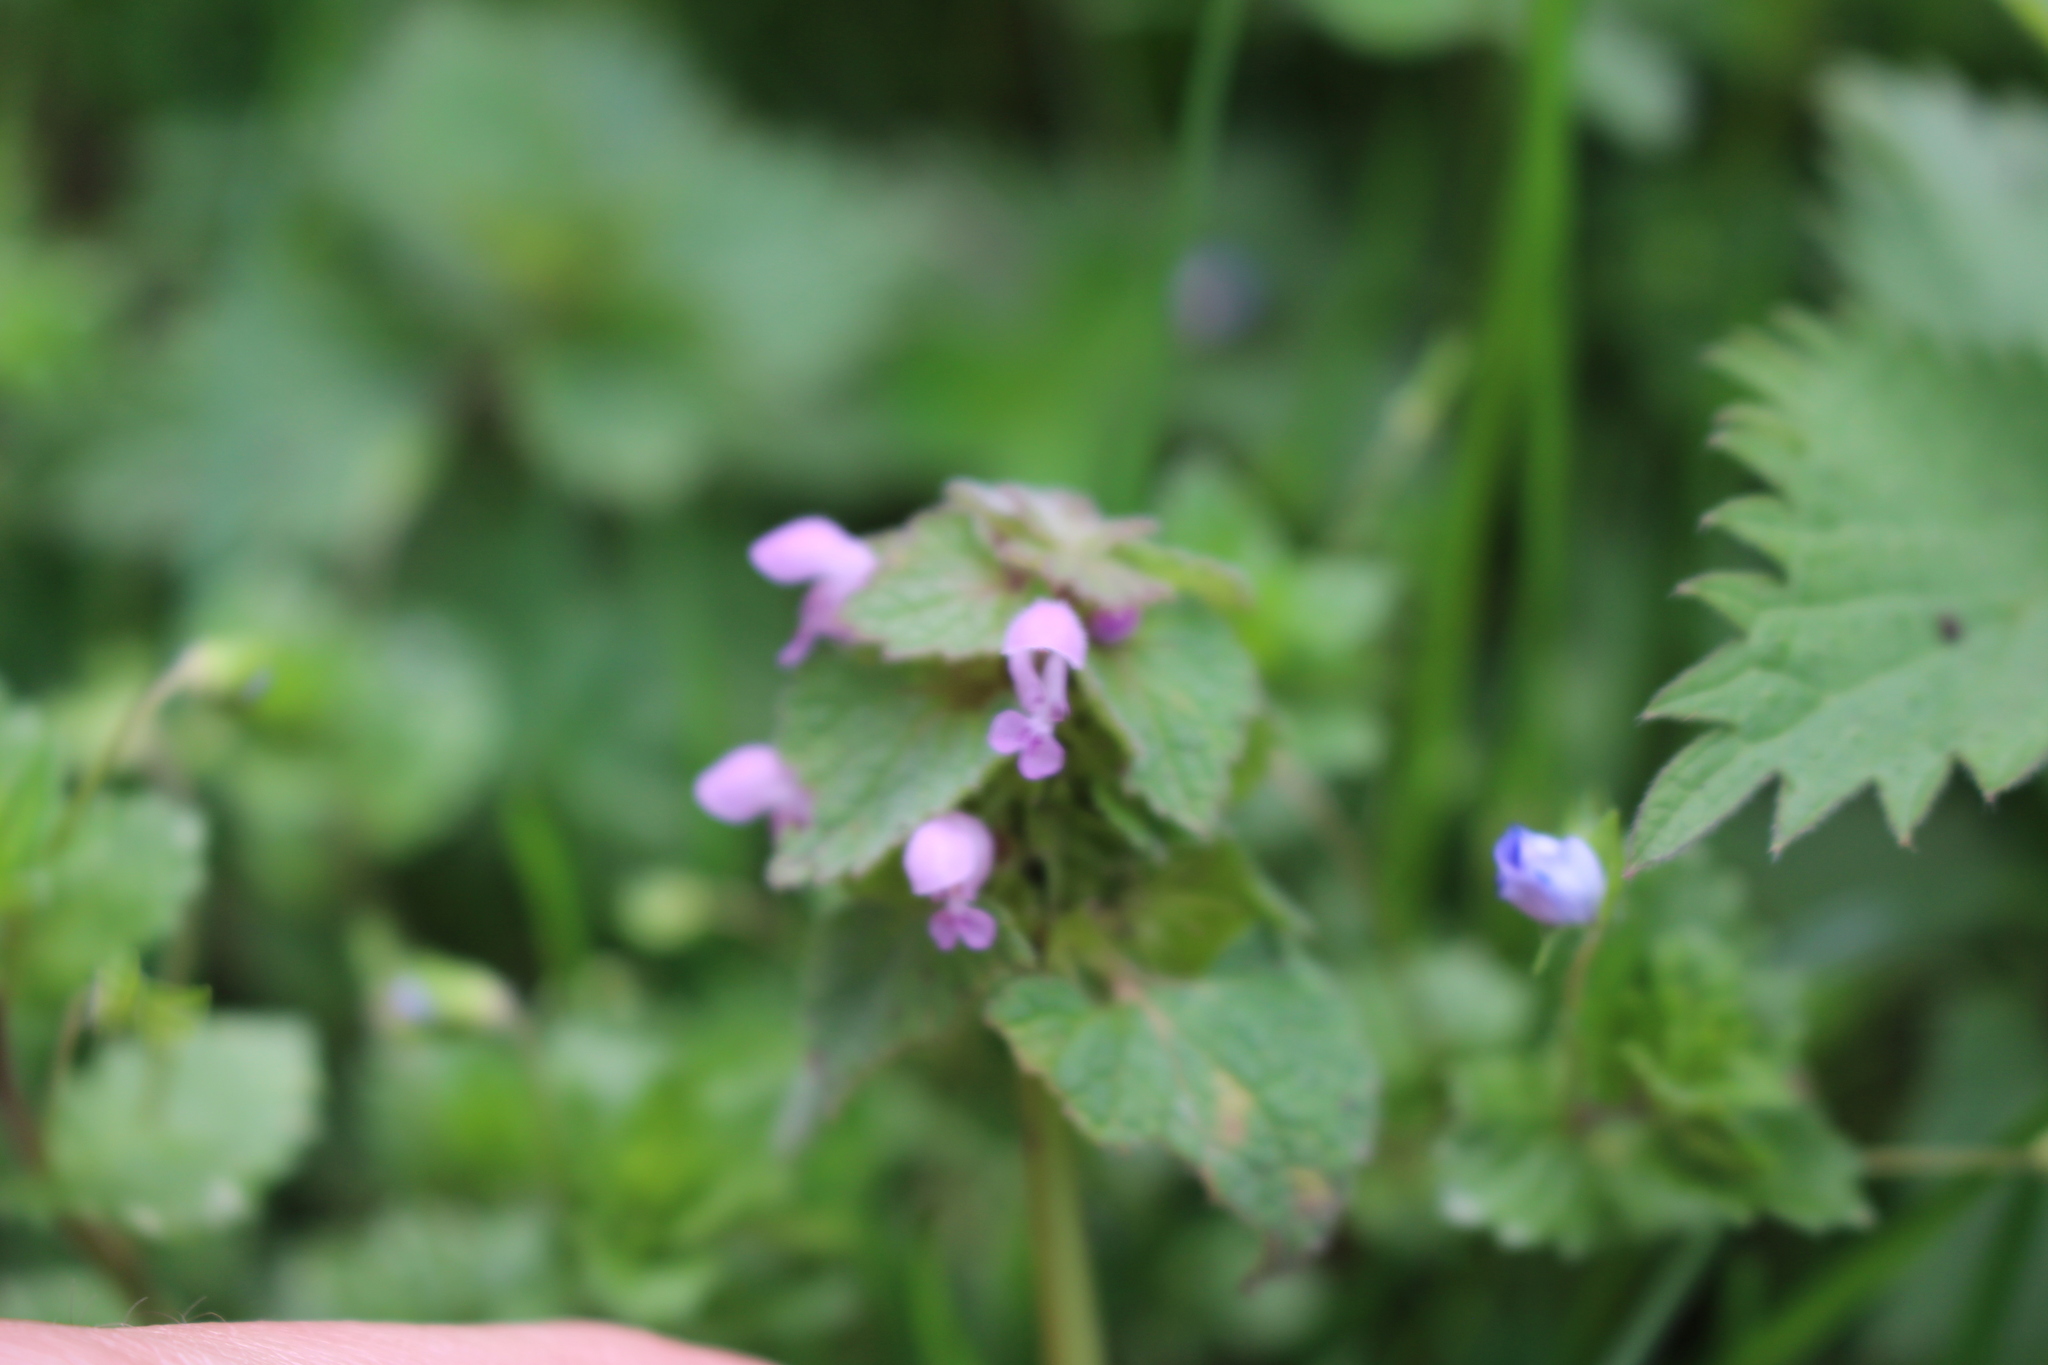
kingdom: Plantae
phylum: Tracheophyta
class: Magnoliopsida
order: Lamiales
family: Lamiaceae
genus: Lamium
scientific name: Lamium purpureum
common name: Red dead-nettle
